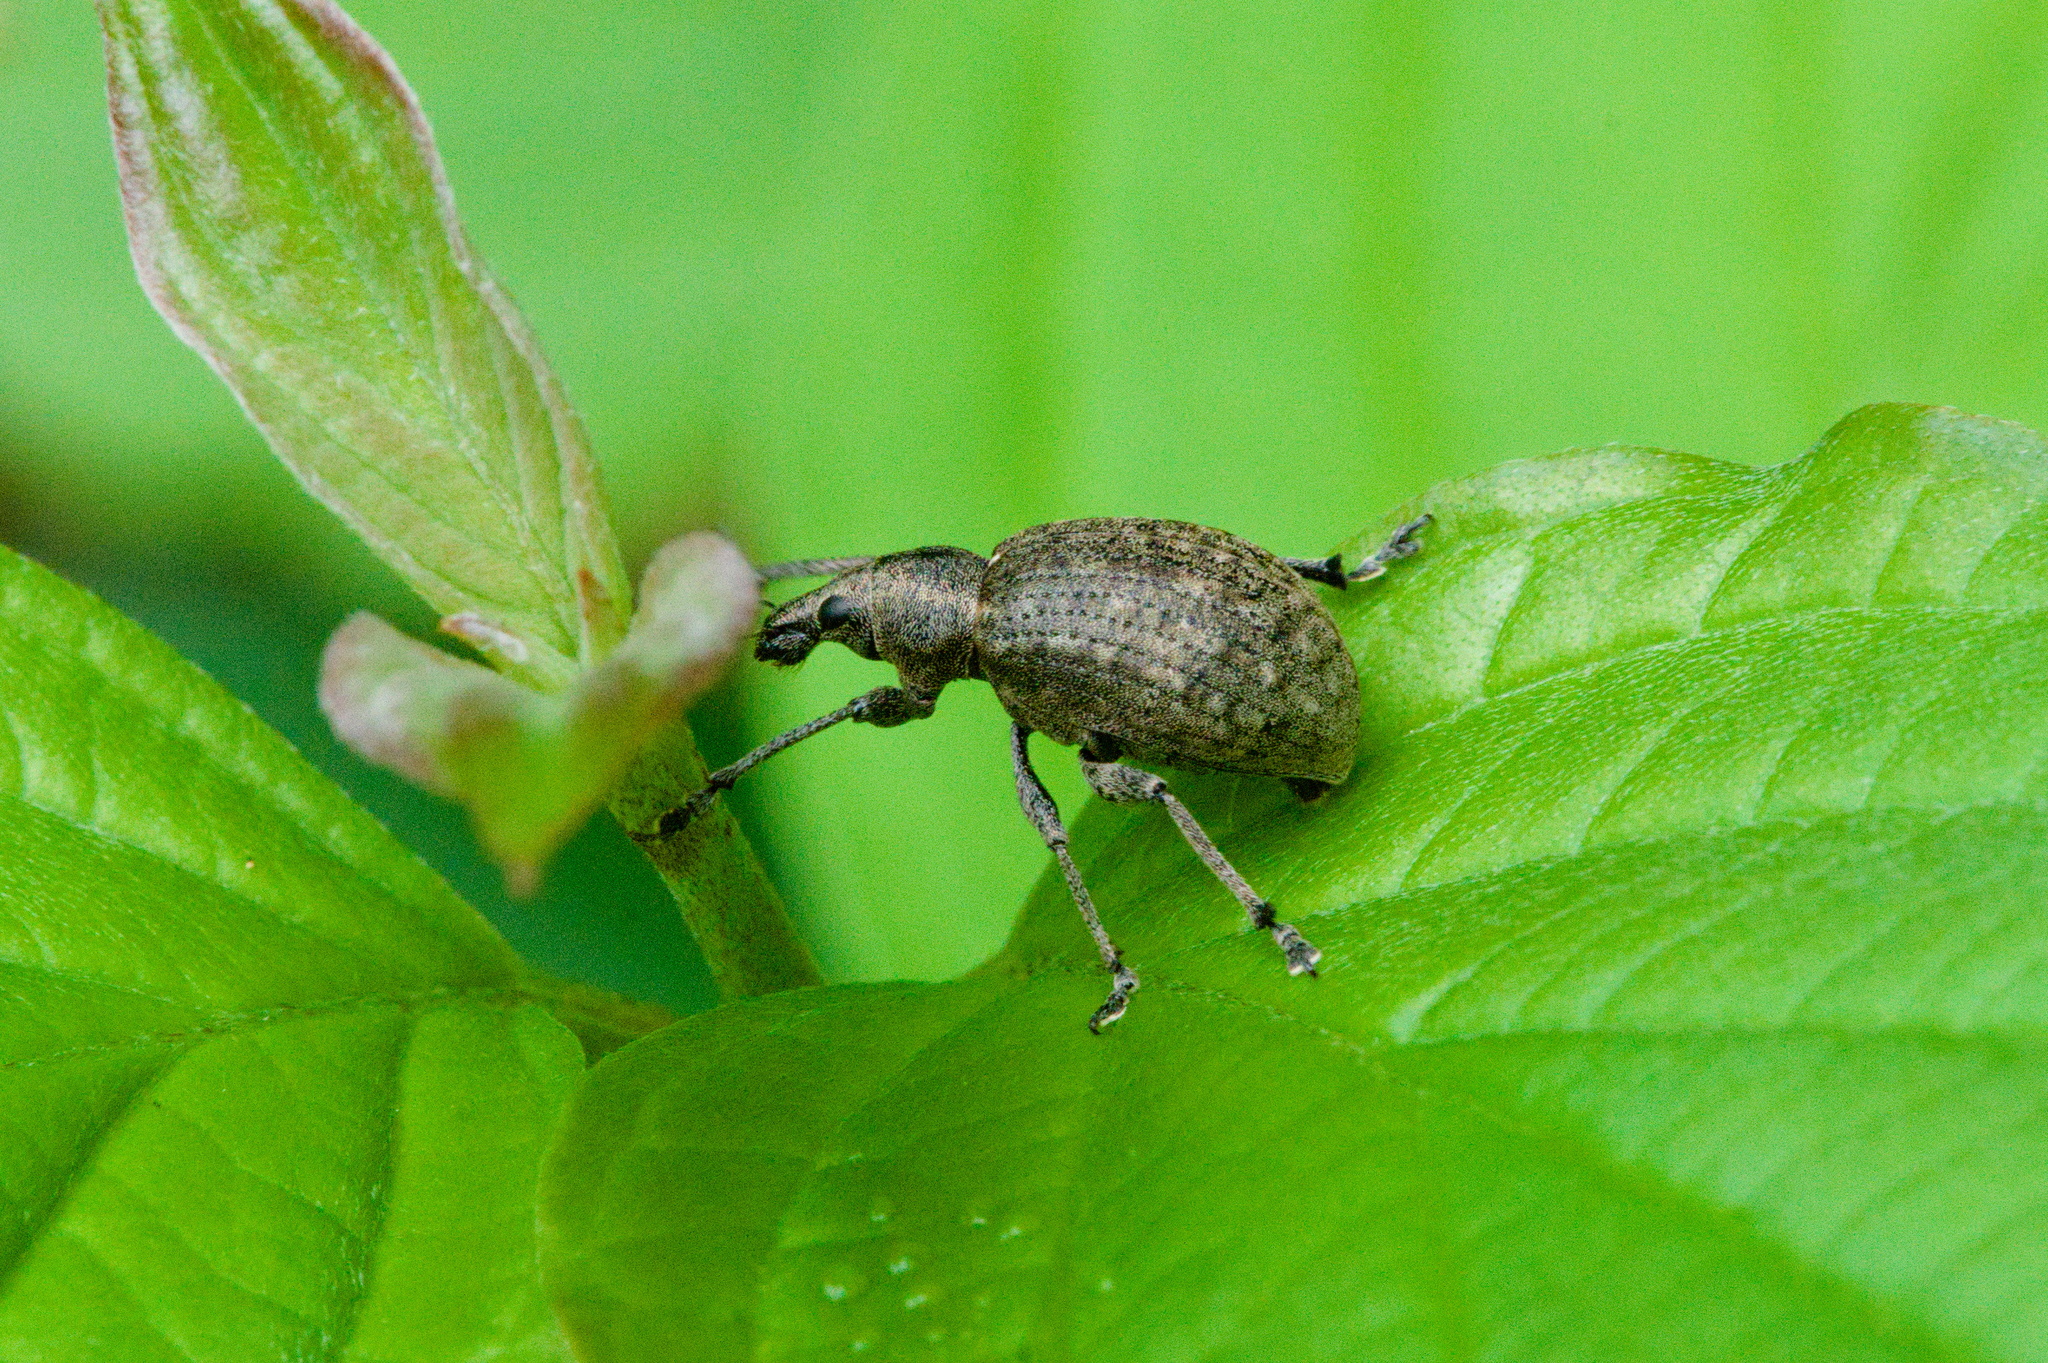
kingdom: Animalia
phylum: Arthropoda
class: Insecta
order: Coleoptera
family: Curculionidae
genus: Liophloeus
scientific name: Liophloeus tessulatus
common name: Weevil
